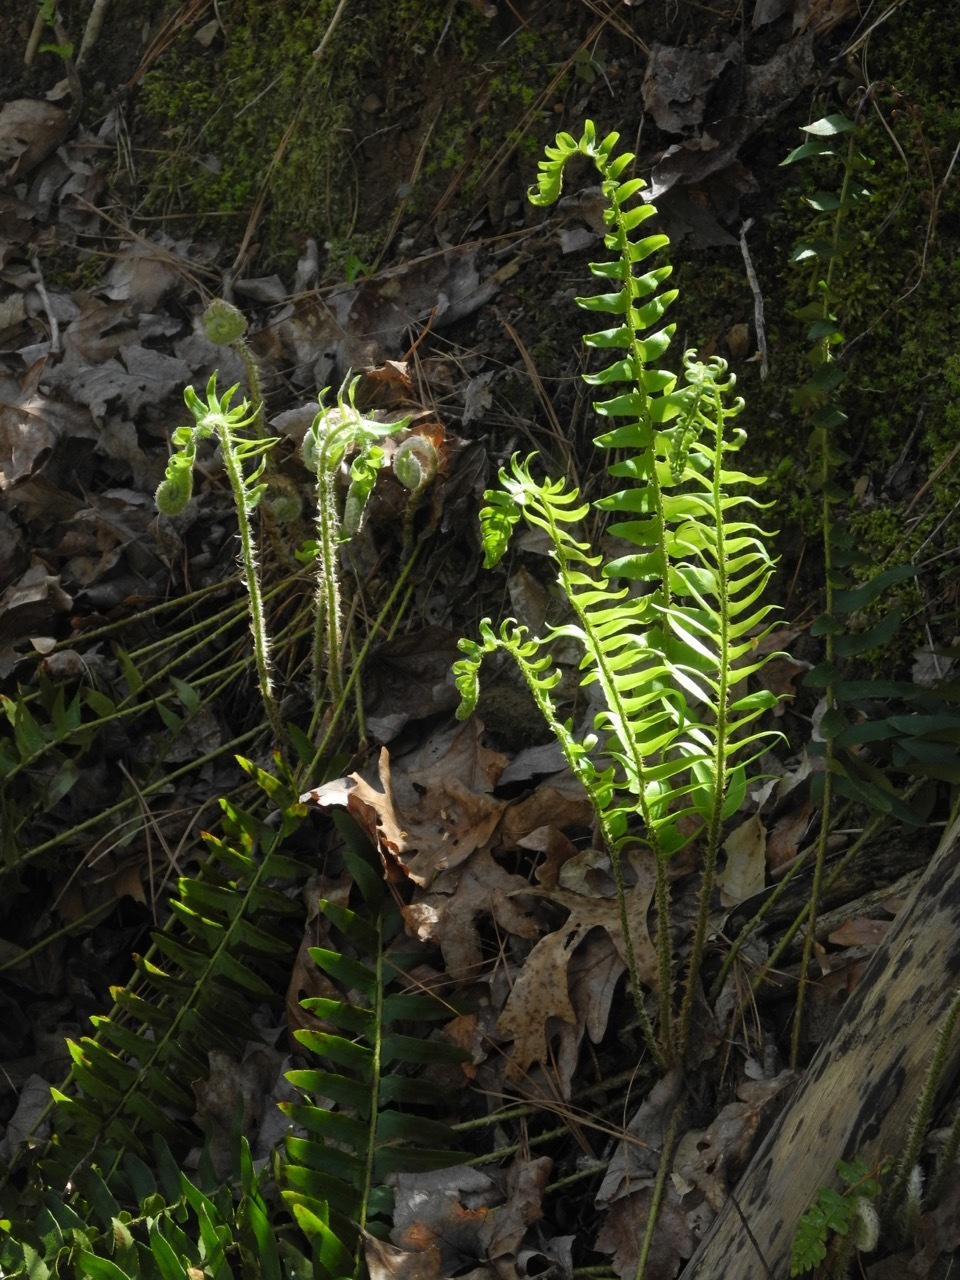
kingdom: Plantae
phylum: Tracheophyta
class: Polypodiopsida
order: Polypodiales
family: Dryopteridaceae
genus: Polystichum
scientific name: Polystichum acrostichoides
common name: Christmas fern
